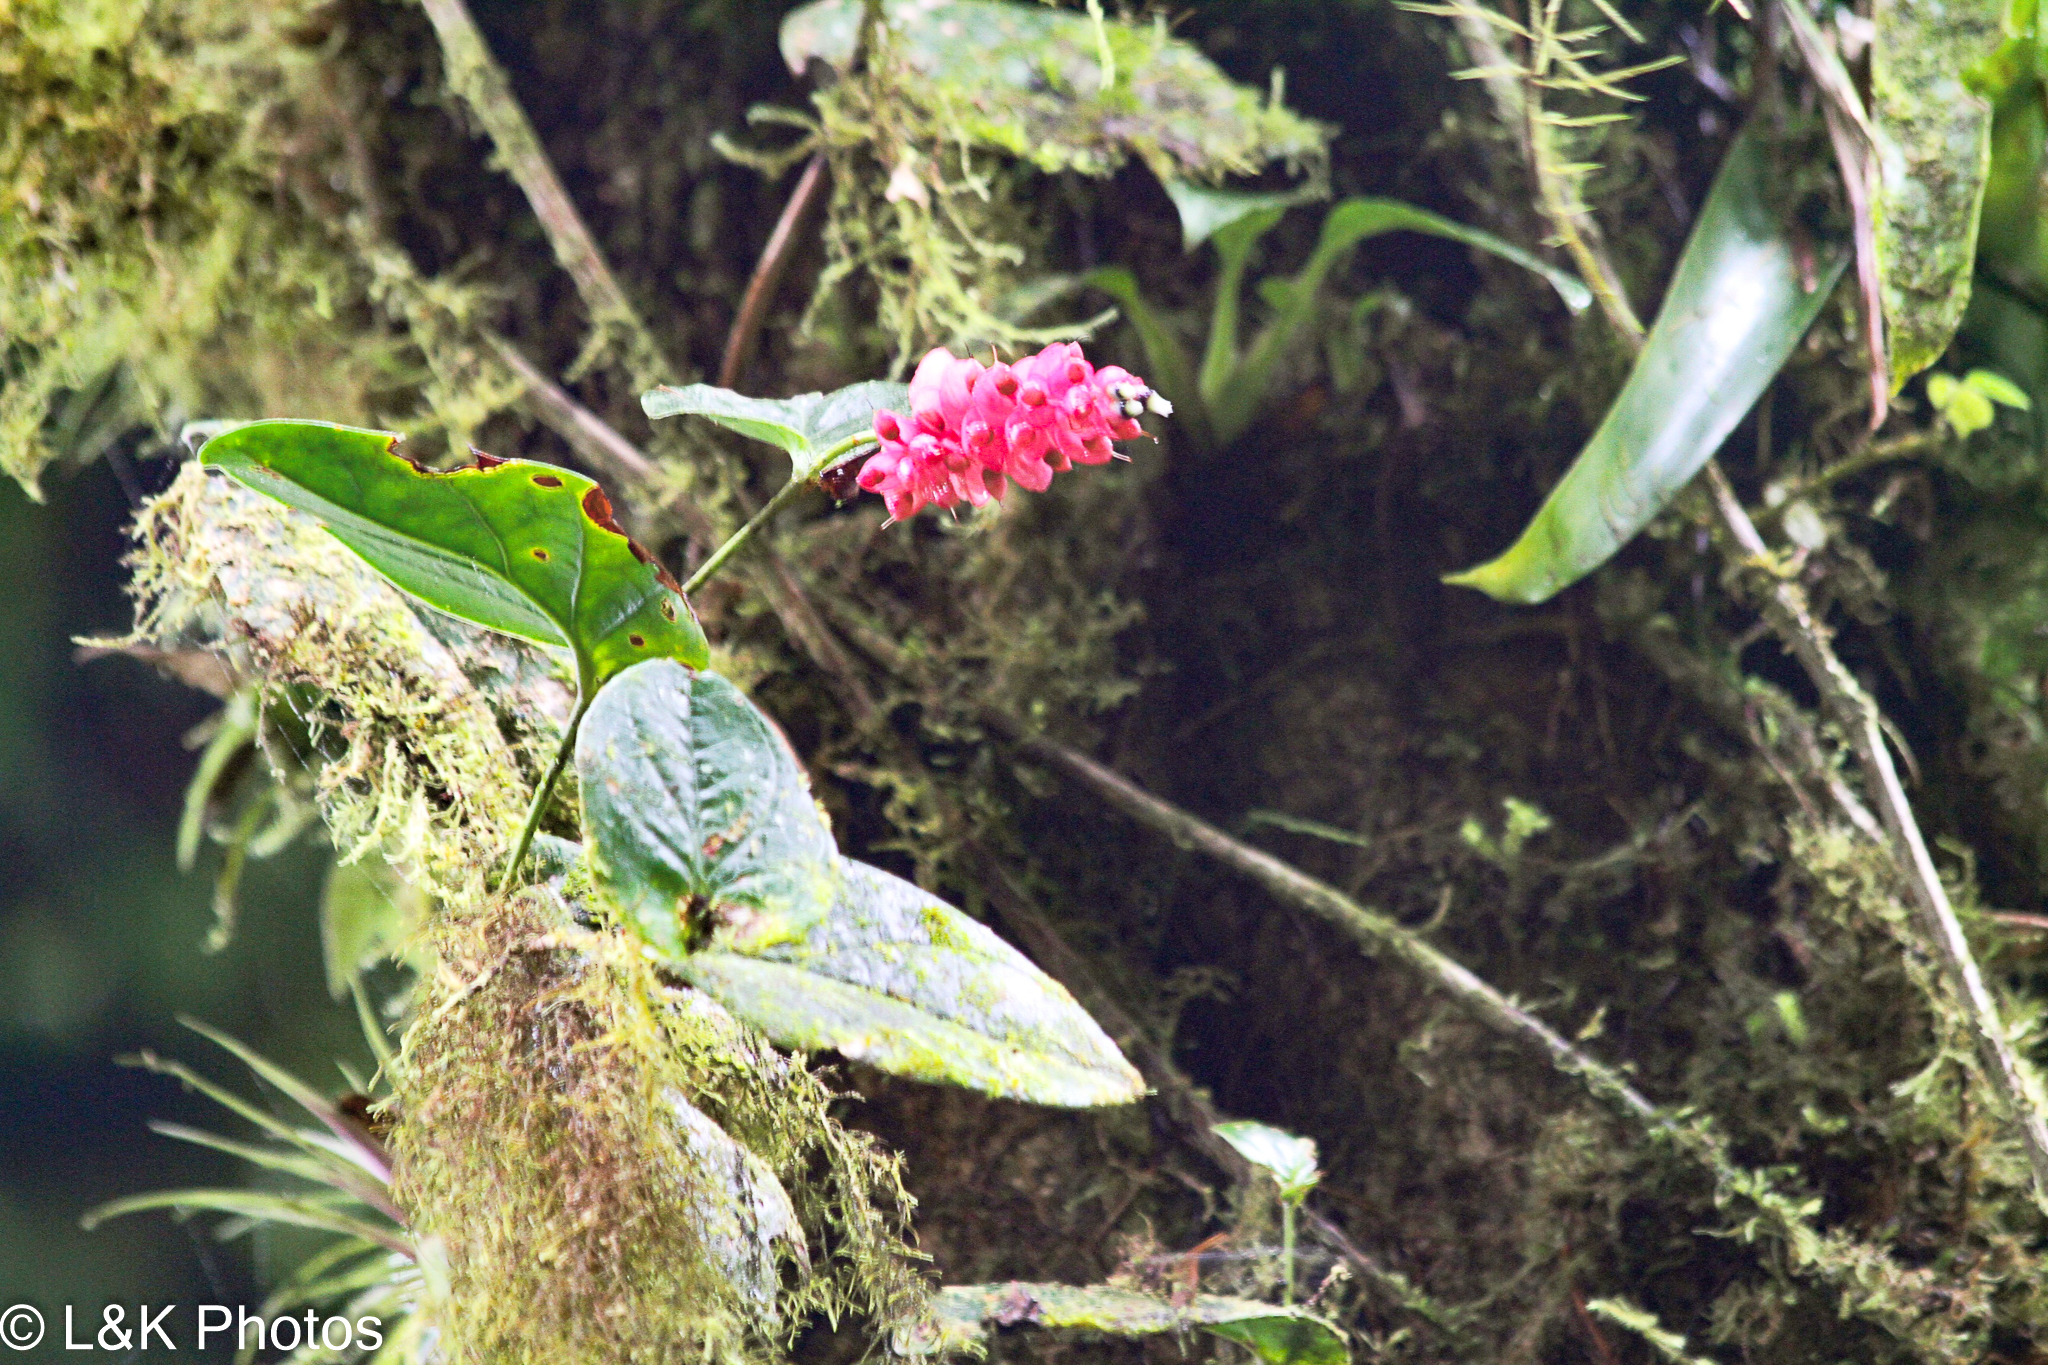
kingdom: Plantae
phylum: Tracheophyta
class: Magnoliopsida
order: Ericales
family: Ericaceae
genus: Cavendishia
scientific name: Cavendishia complectens
